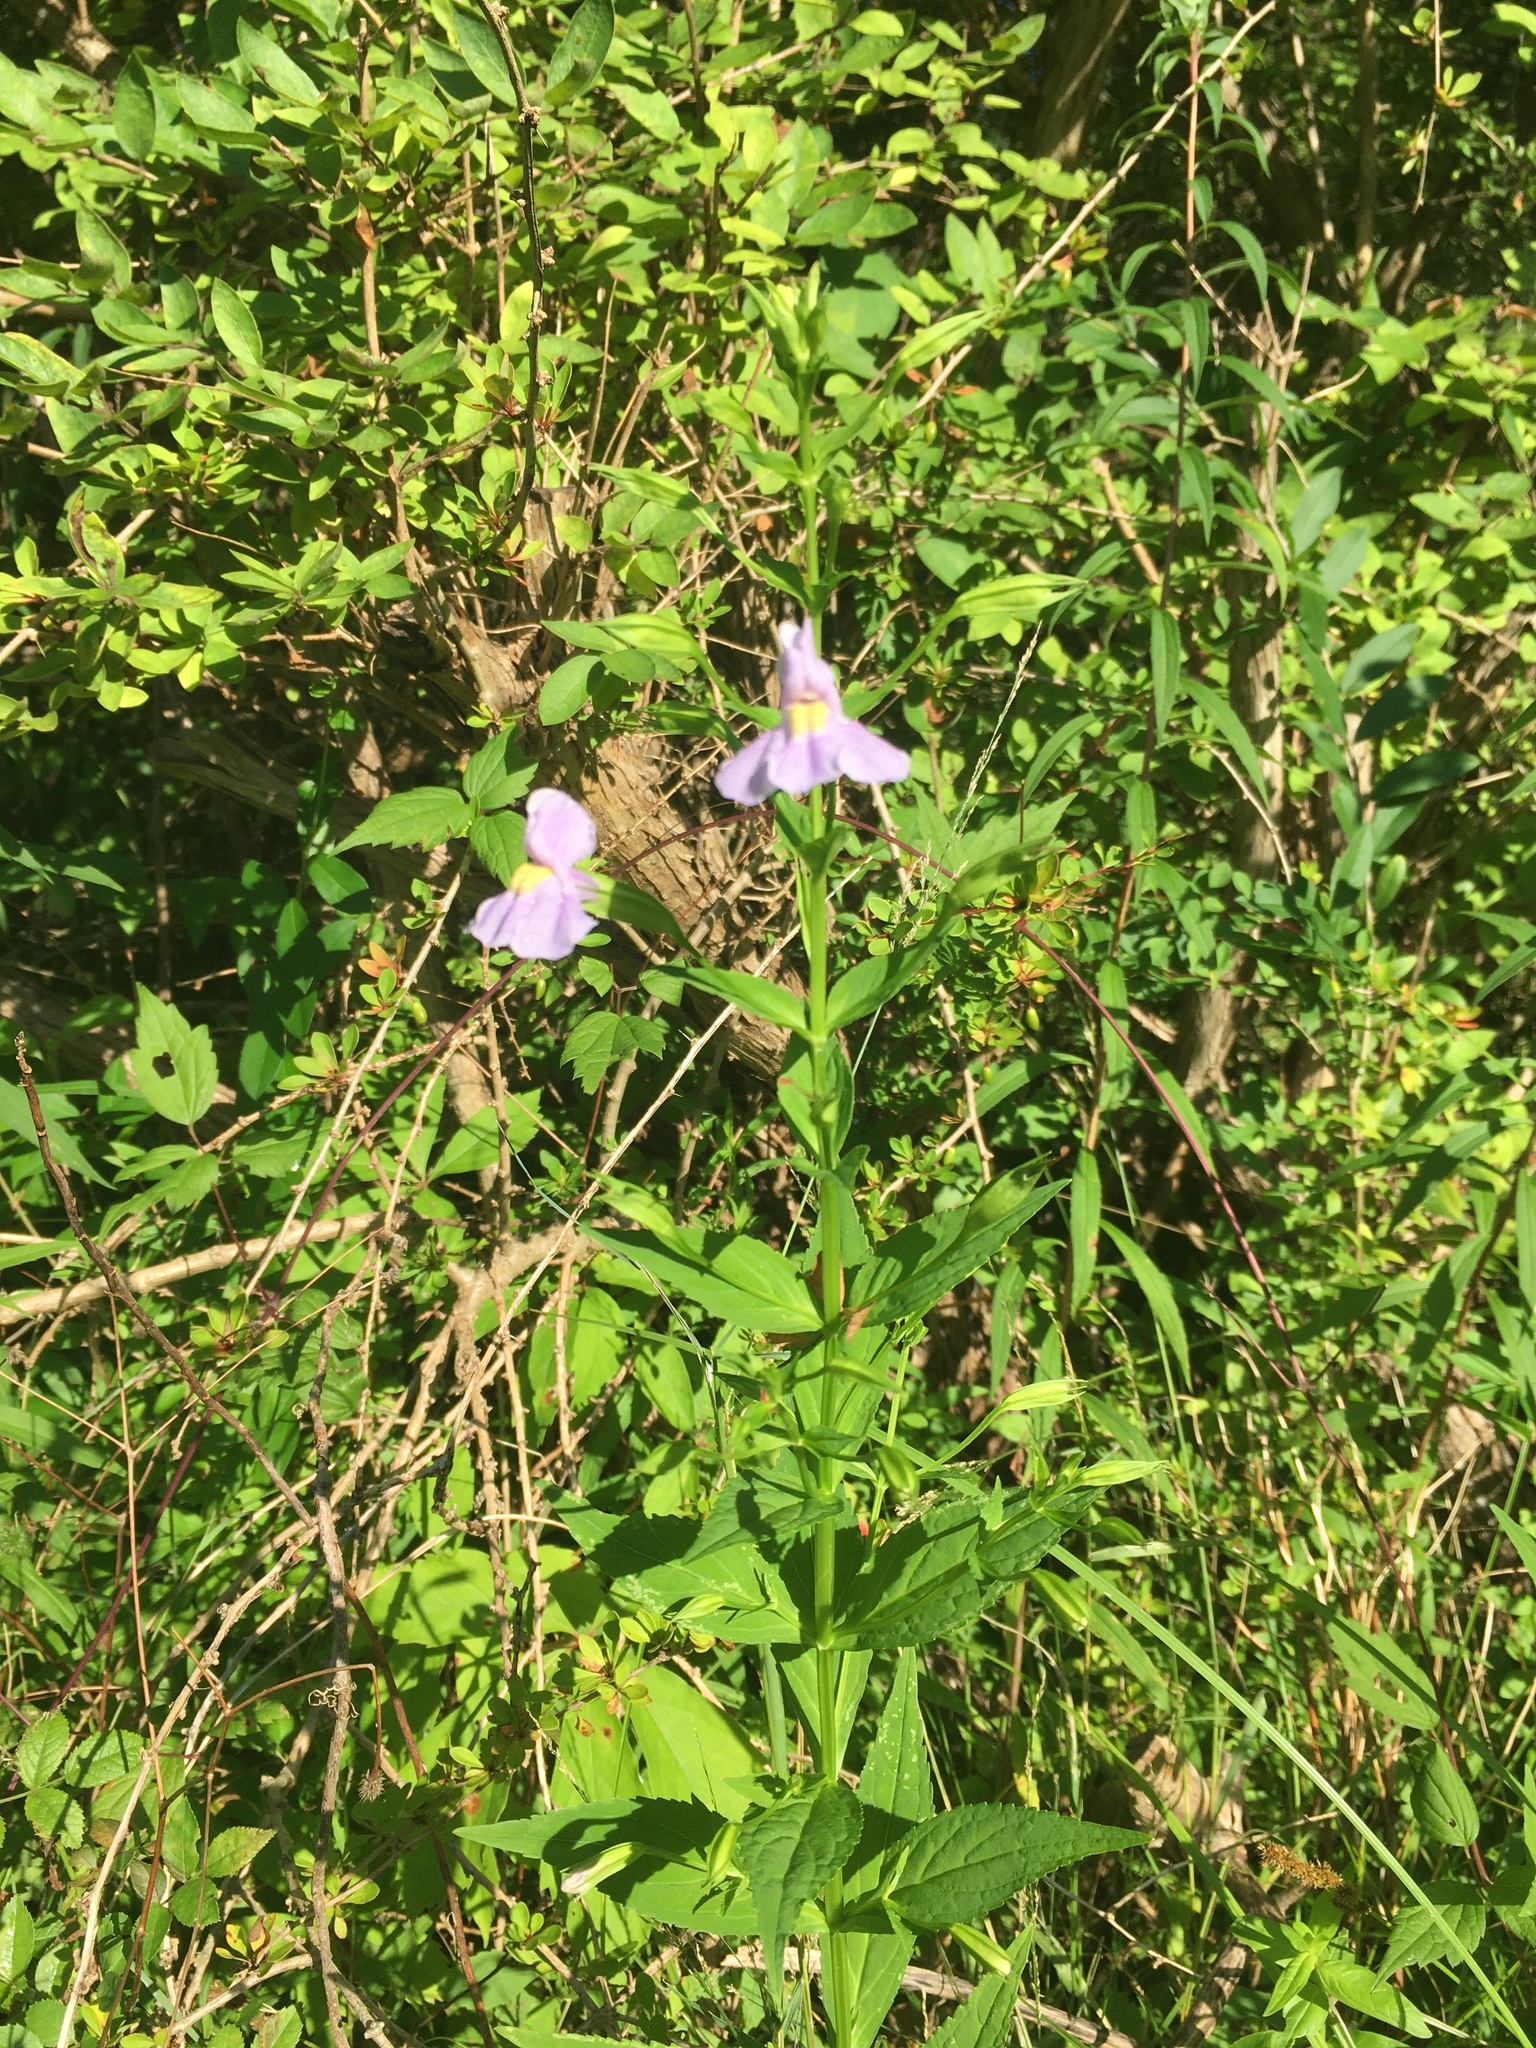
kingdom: Plantae
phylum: Tracheophyta
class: Magnoliopsida
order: Lamiales
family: Phrymaceae
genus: Mimulus
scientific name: Mimulus ringens
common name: Allegheny monkeyflower
